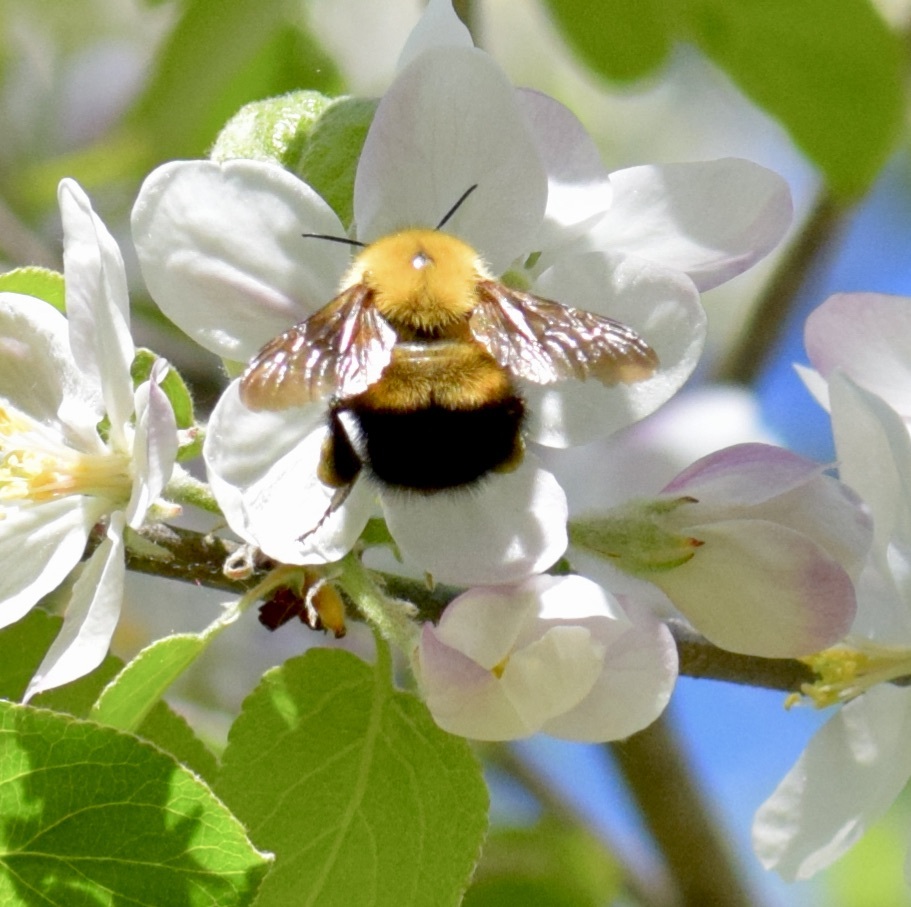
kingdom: Animalia
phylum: Arthropoda
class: Insecta
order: Hymenoptera
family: Apidae
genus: Bombus
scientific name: Bombus perplexus
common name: Confusing bumble bee
